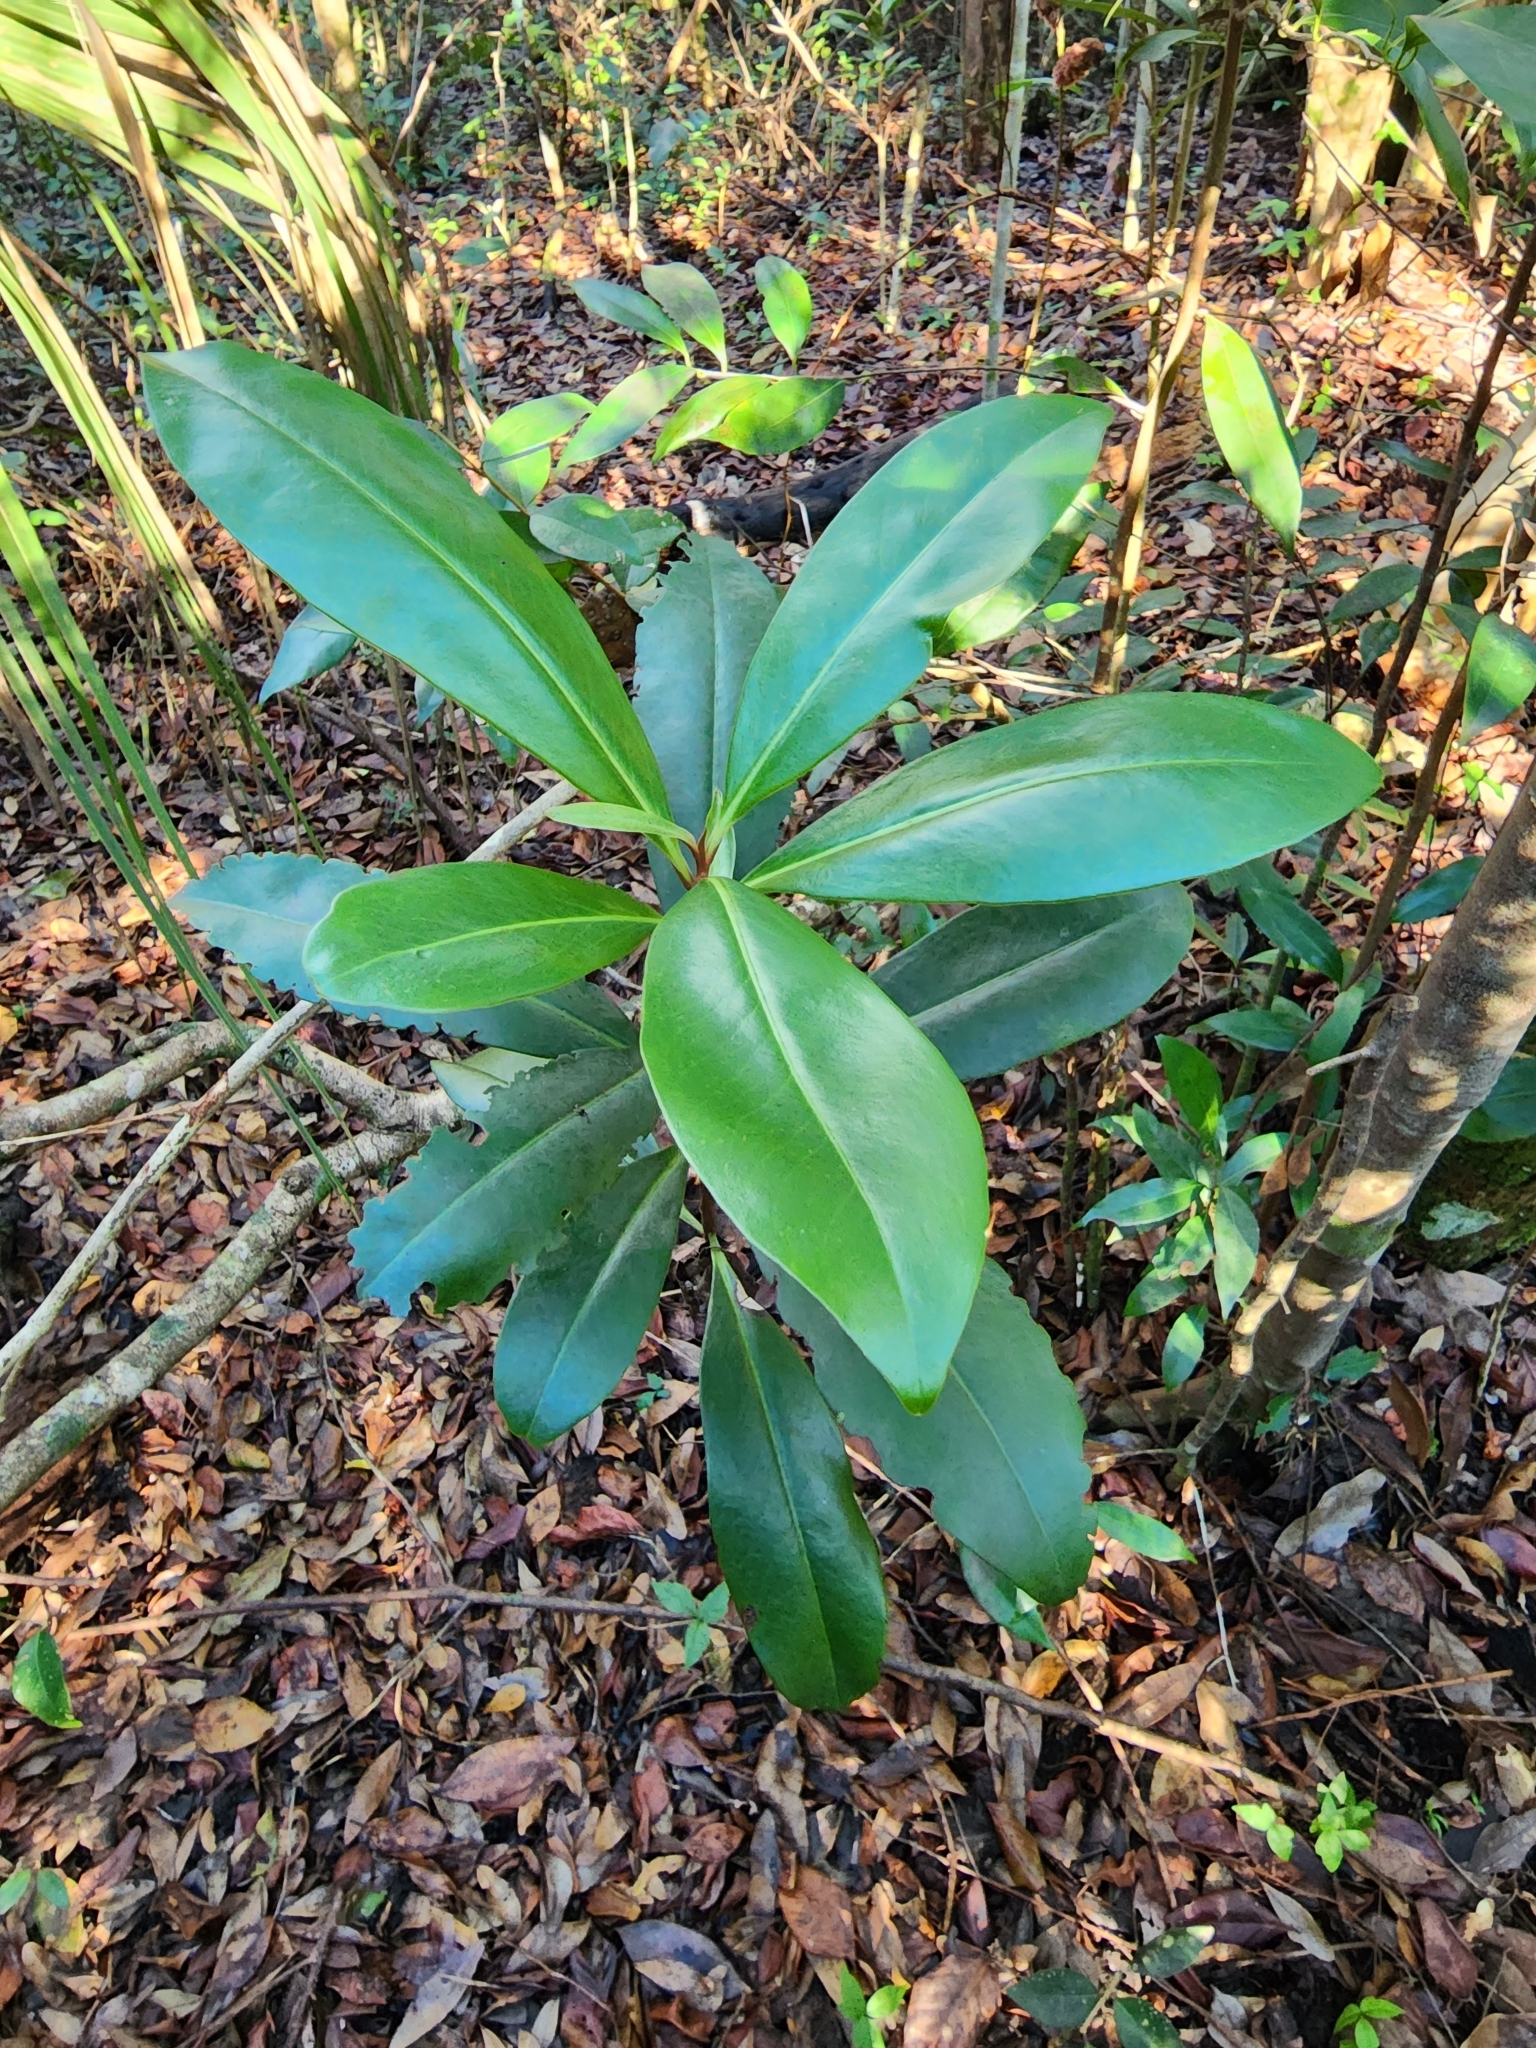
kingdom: Plantae
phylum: Tracheophyta
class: Magnoliopsida
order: Ericales
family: Primulaceae
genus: Ardisia
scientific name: Ardisia escallonioides
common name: Island marlberry
